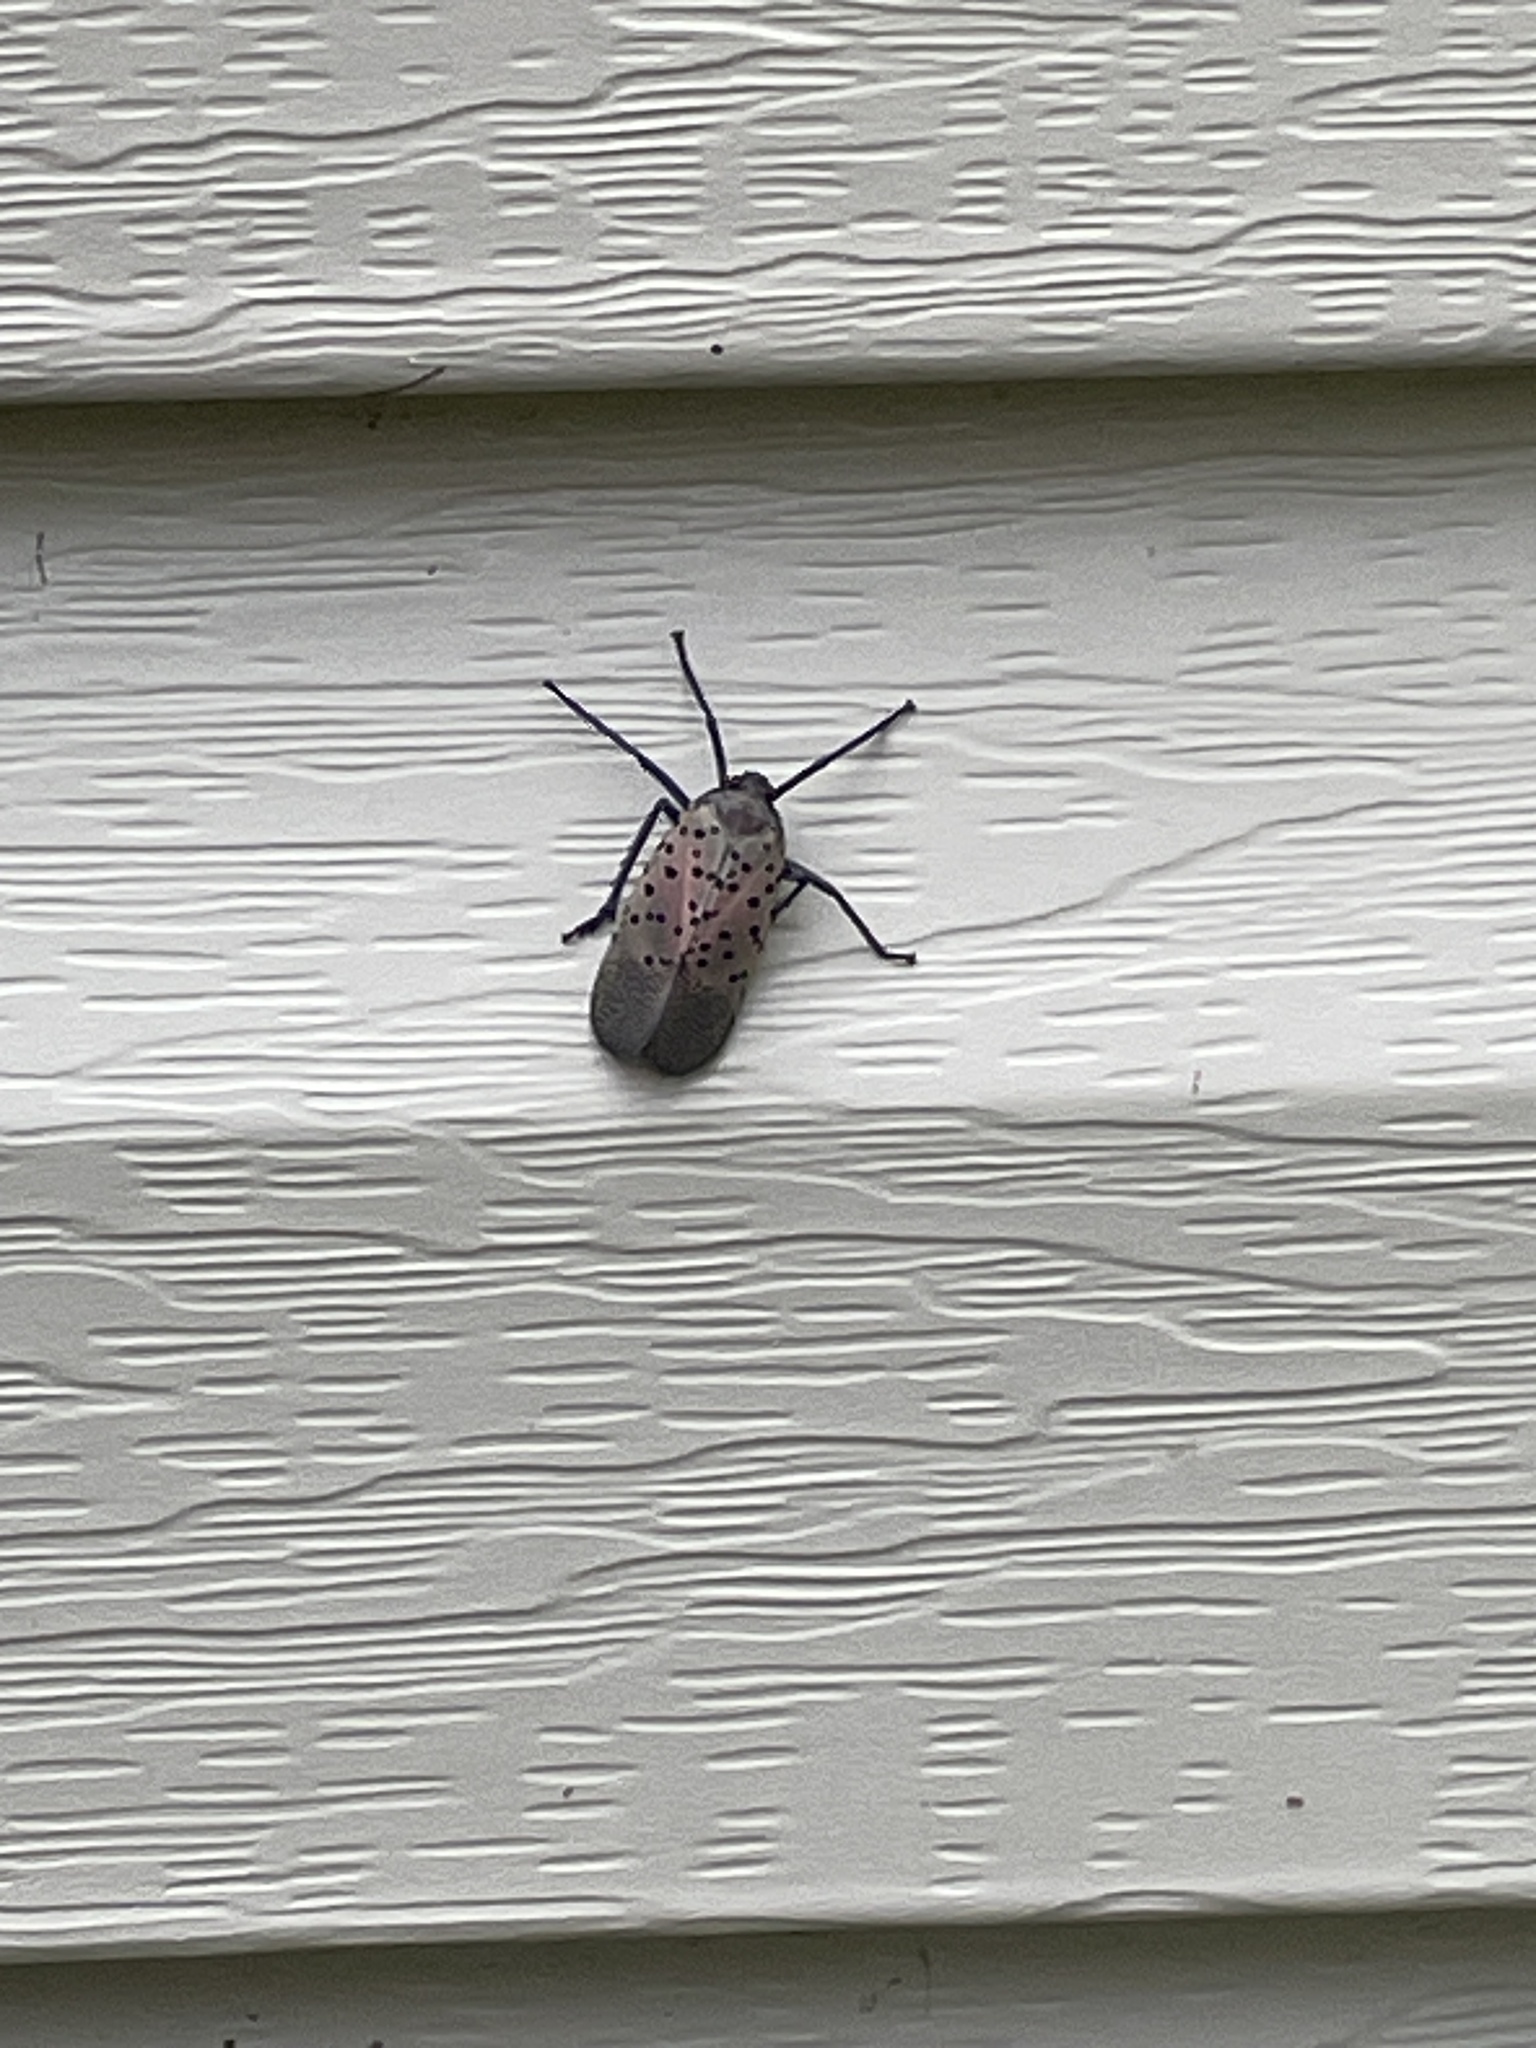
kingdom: Animalia
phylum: Arthropoda
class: Insecta
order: Hemiptera
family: Fulgoridae
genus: Lycorma
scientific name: Lycorma delicatula
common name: Spotted lanternfly
